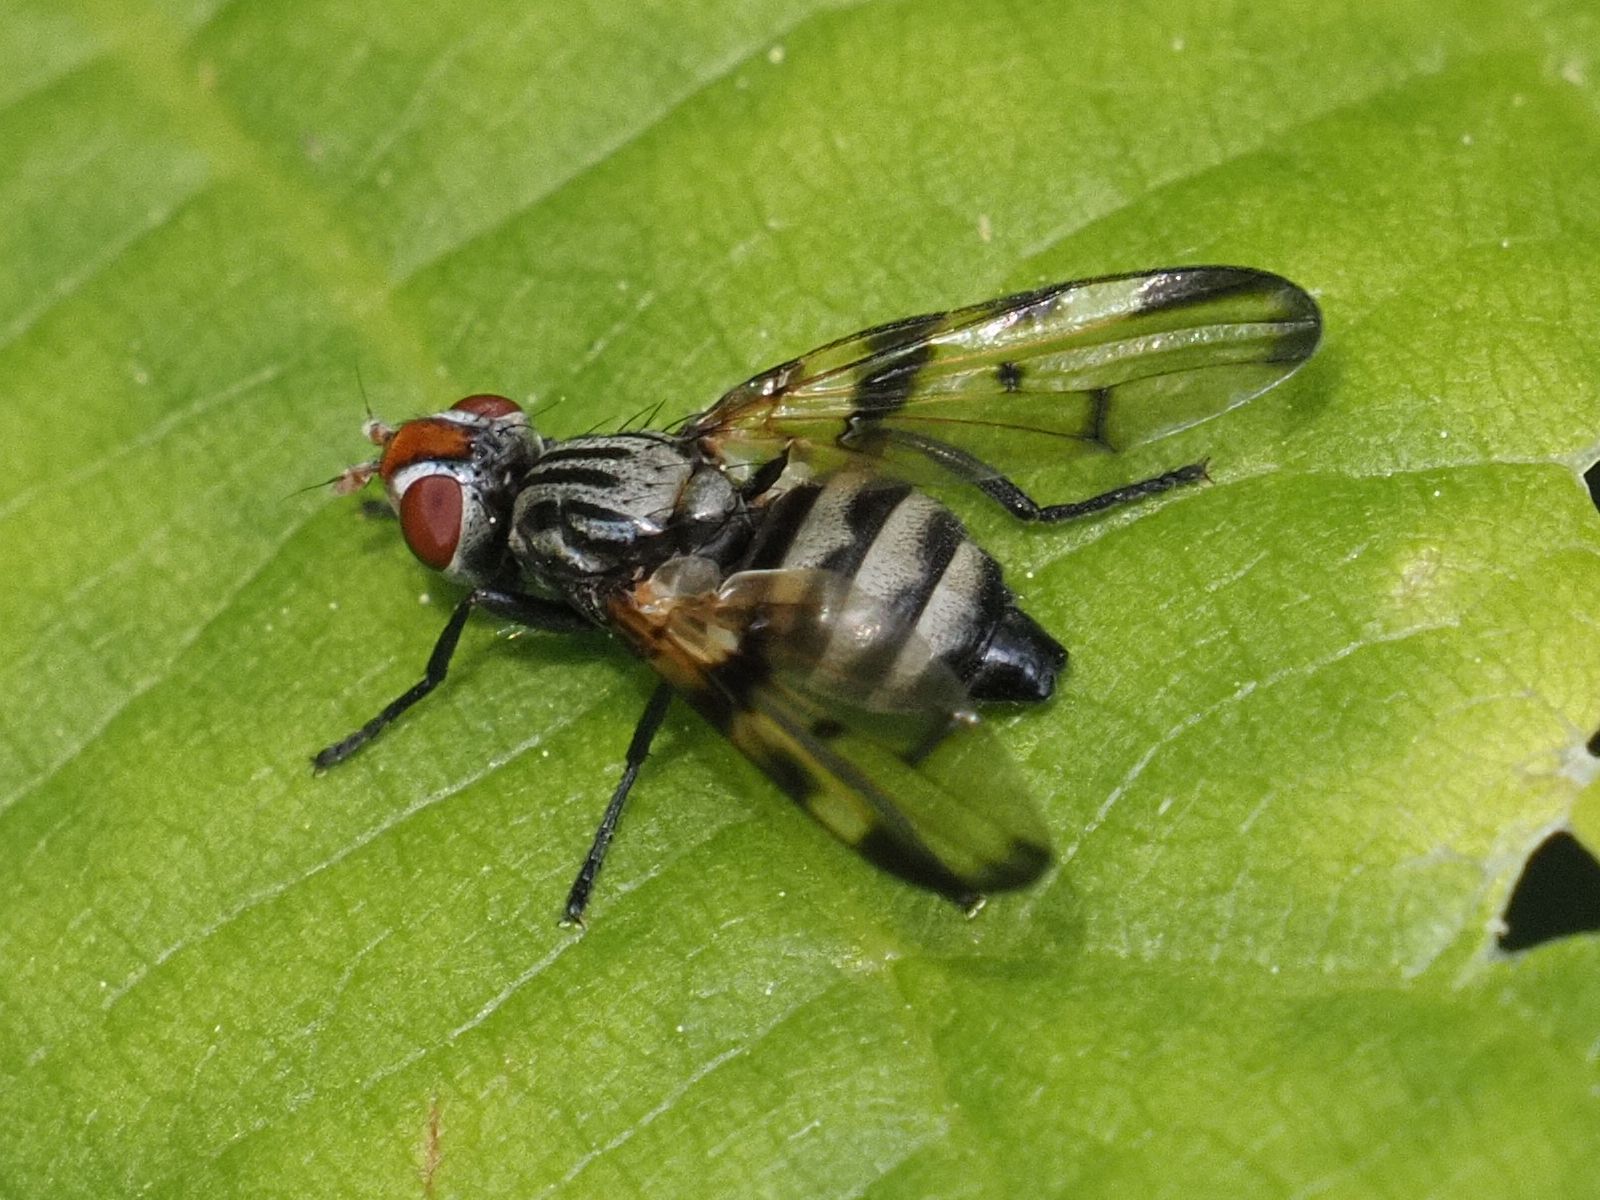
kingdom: Animalia
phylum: Arthropoda
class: Insecta
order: Diptera
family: Ulidiidae
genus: Otites
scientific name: Otites formosa
